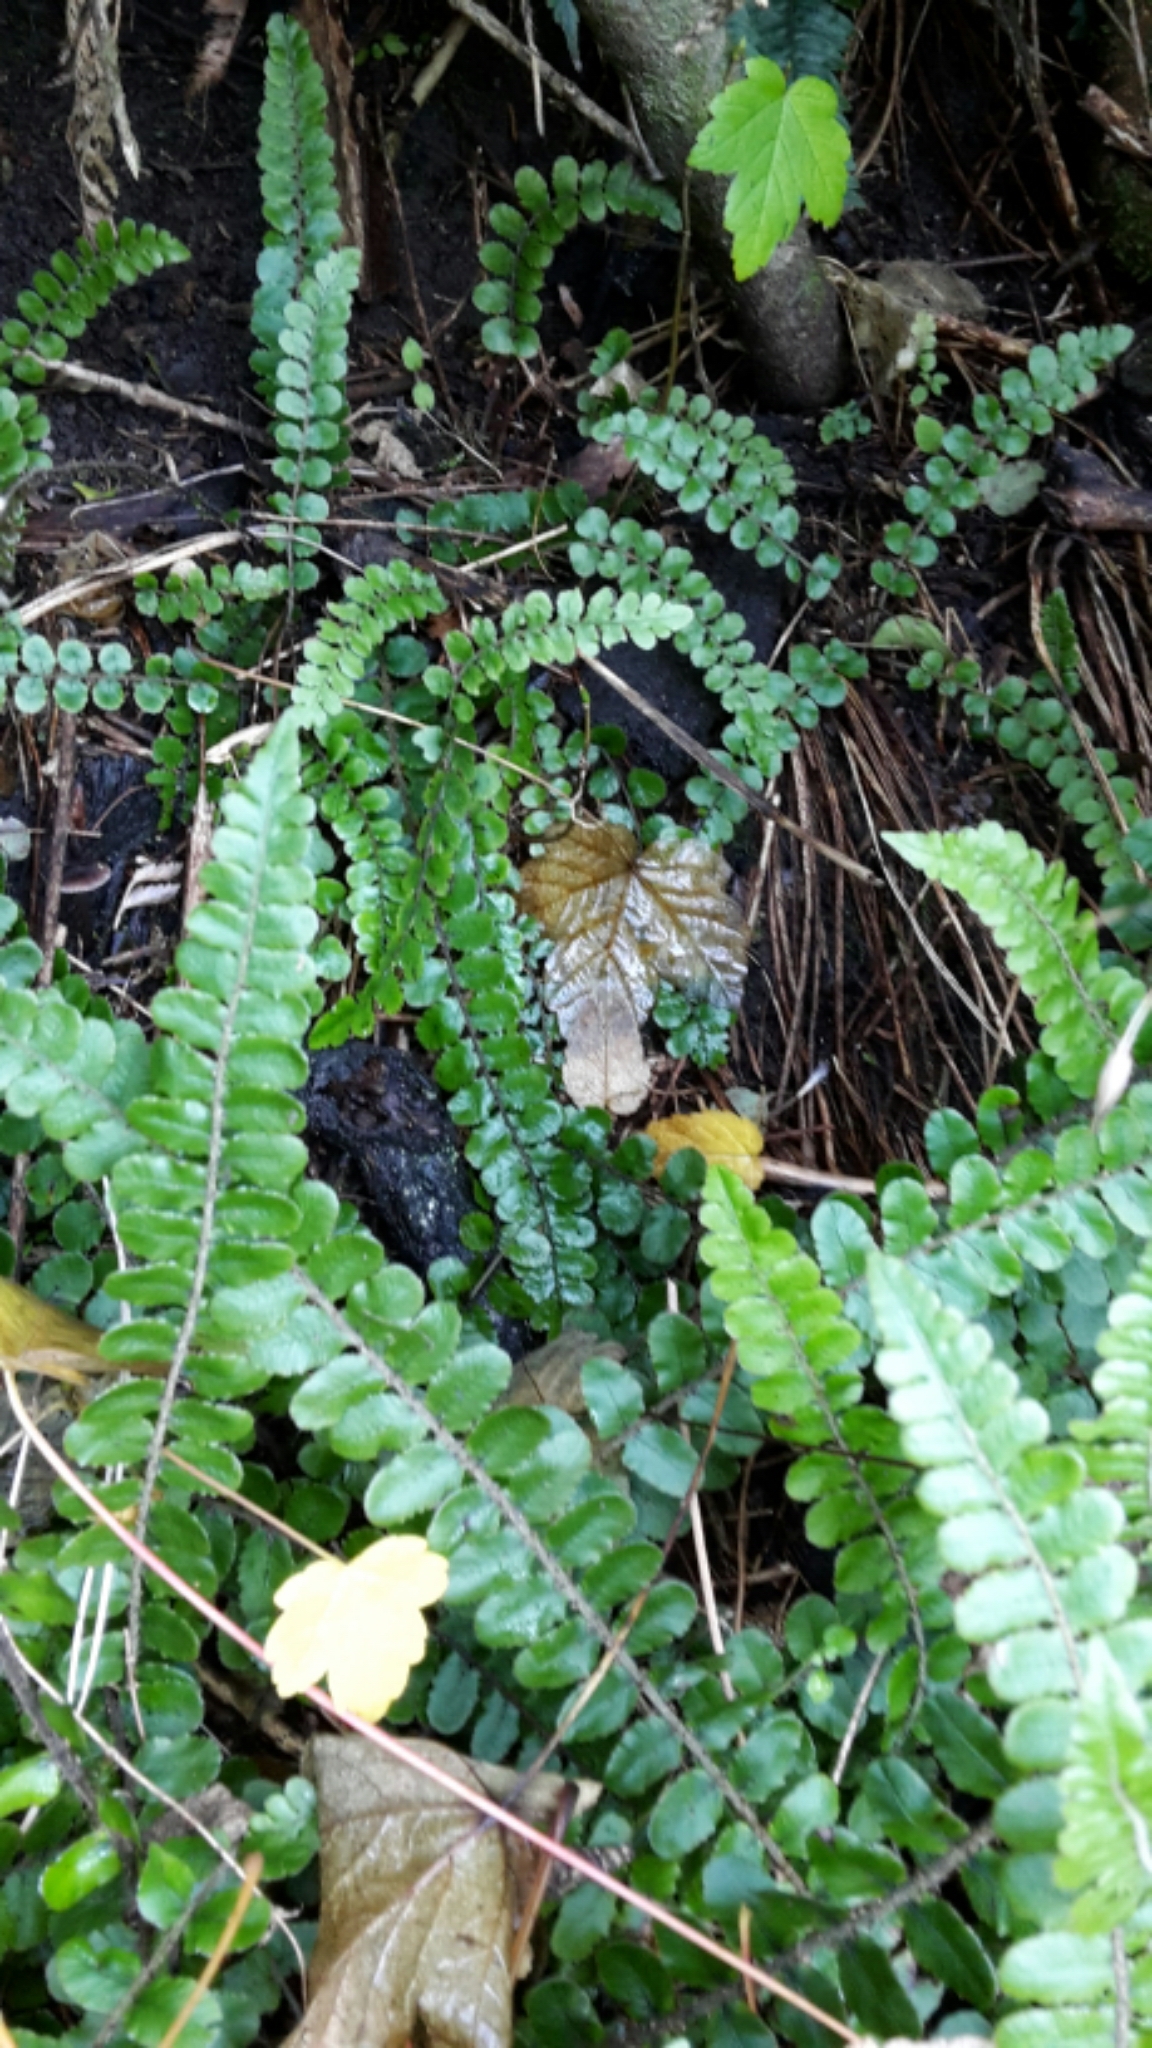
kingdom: Plantae
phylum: Tracheophyta
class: Polypodiopsida
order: Polypodiales
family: Blechnaceae
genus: Cranfillia
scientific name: Cranfillia fluviatilis
